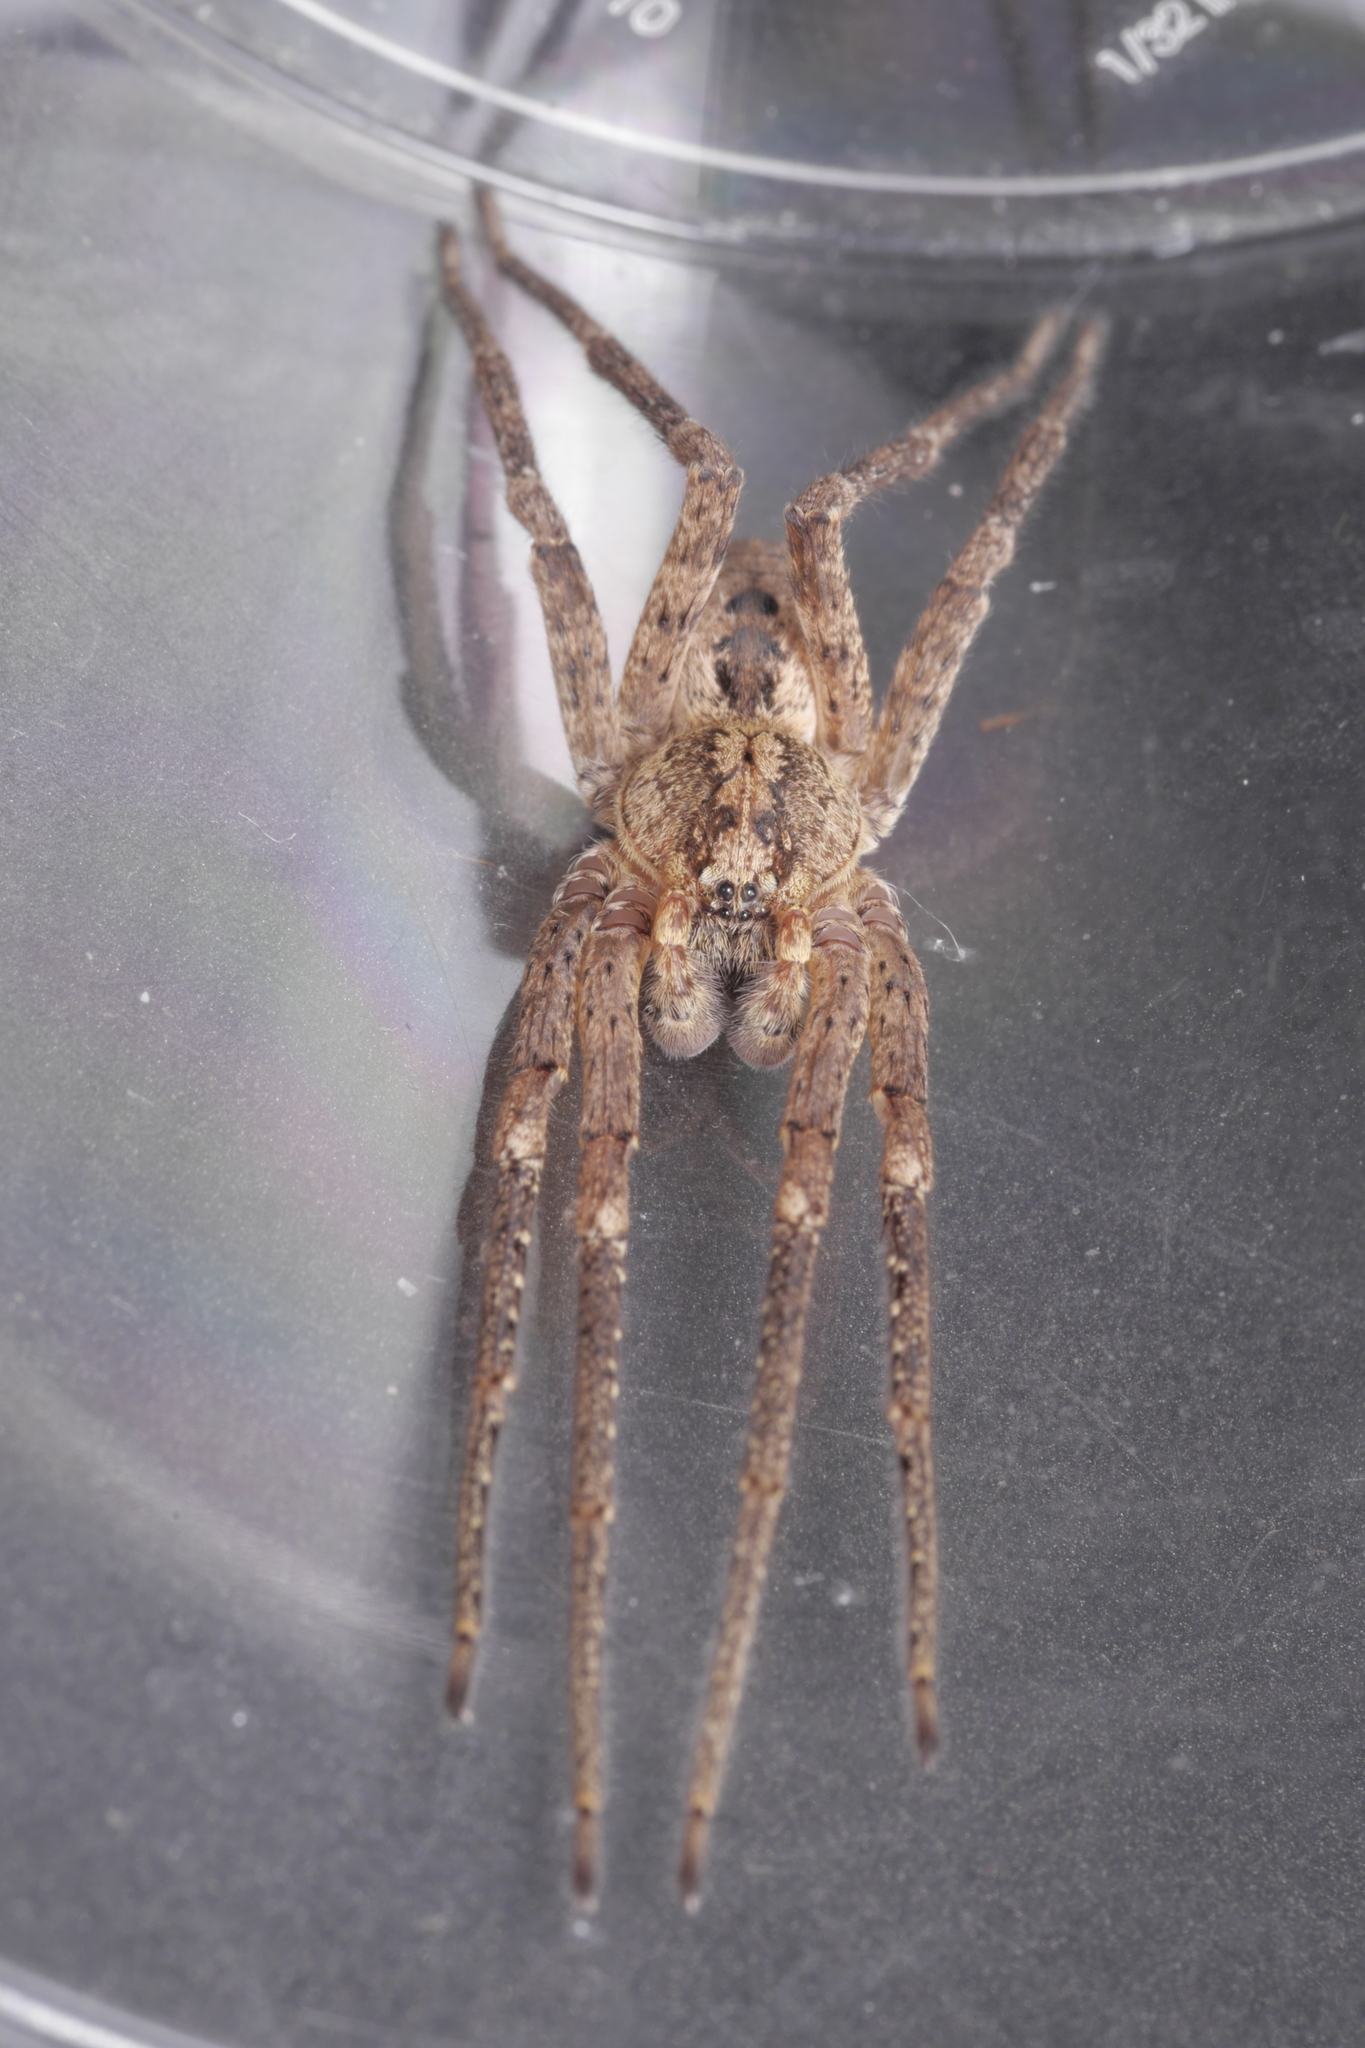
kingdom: Animalia
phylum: Arthropoda
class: Arachnida
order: Araneae
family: Zoropsidae
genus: Zoropsis
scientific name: Zoropsis spinimana
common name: Zoropsid spider
